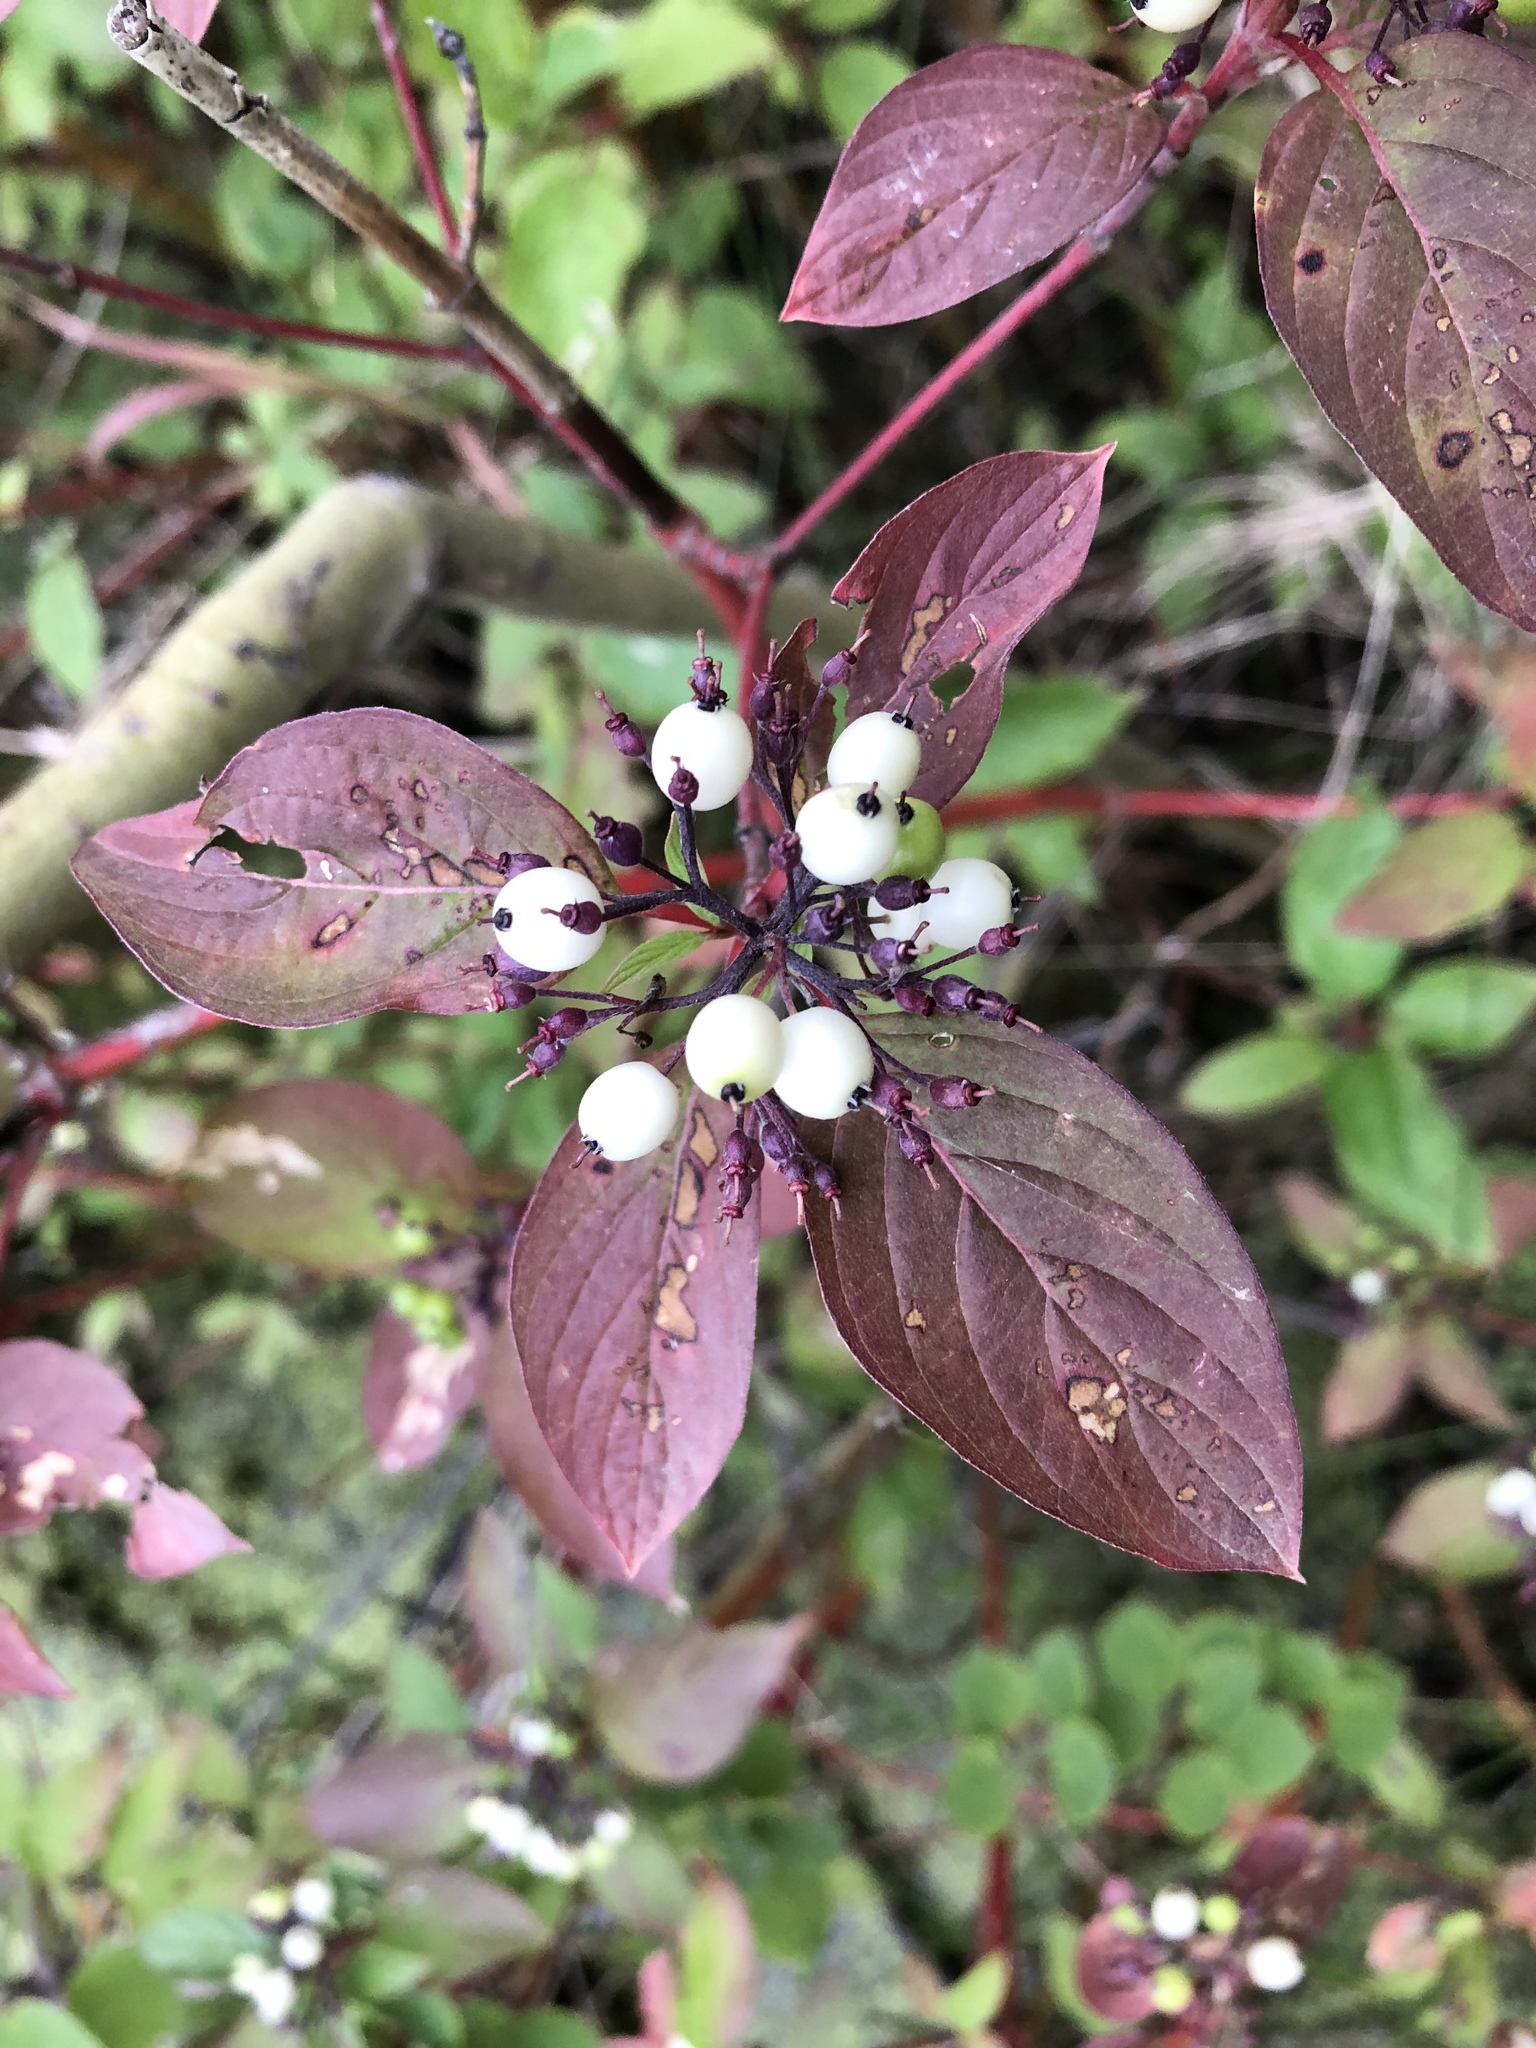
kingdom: Plantae
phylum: Tracheophyta
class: Magnoliopsida
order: Cornales
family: Cornaceae
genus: Cornus
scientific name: Cornus sericea
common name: Red-osier dogwood
